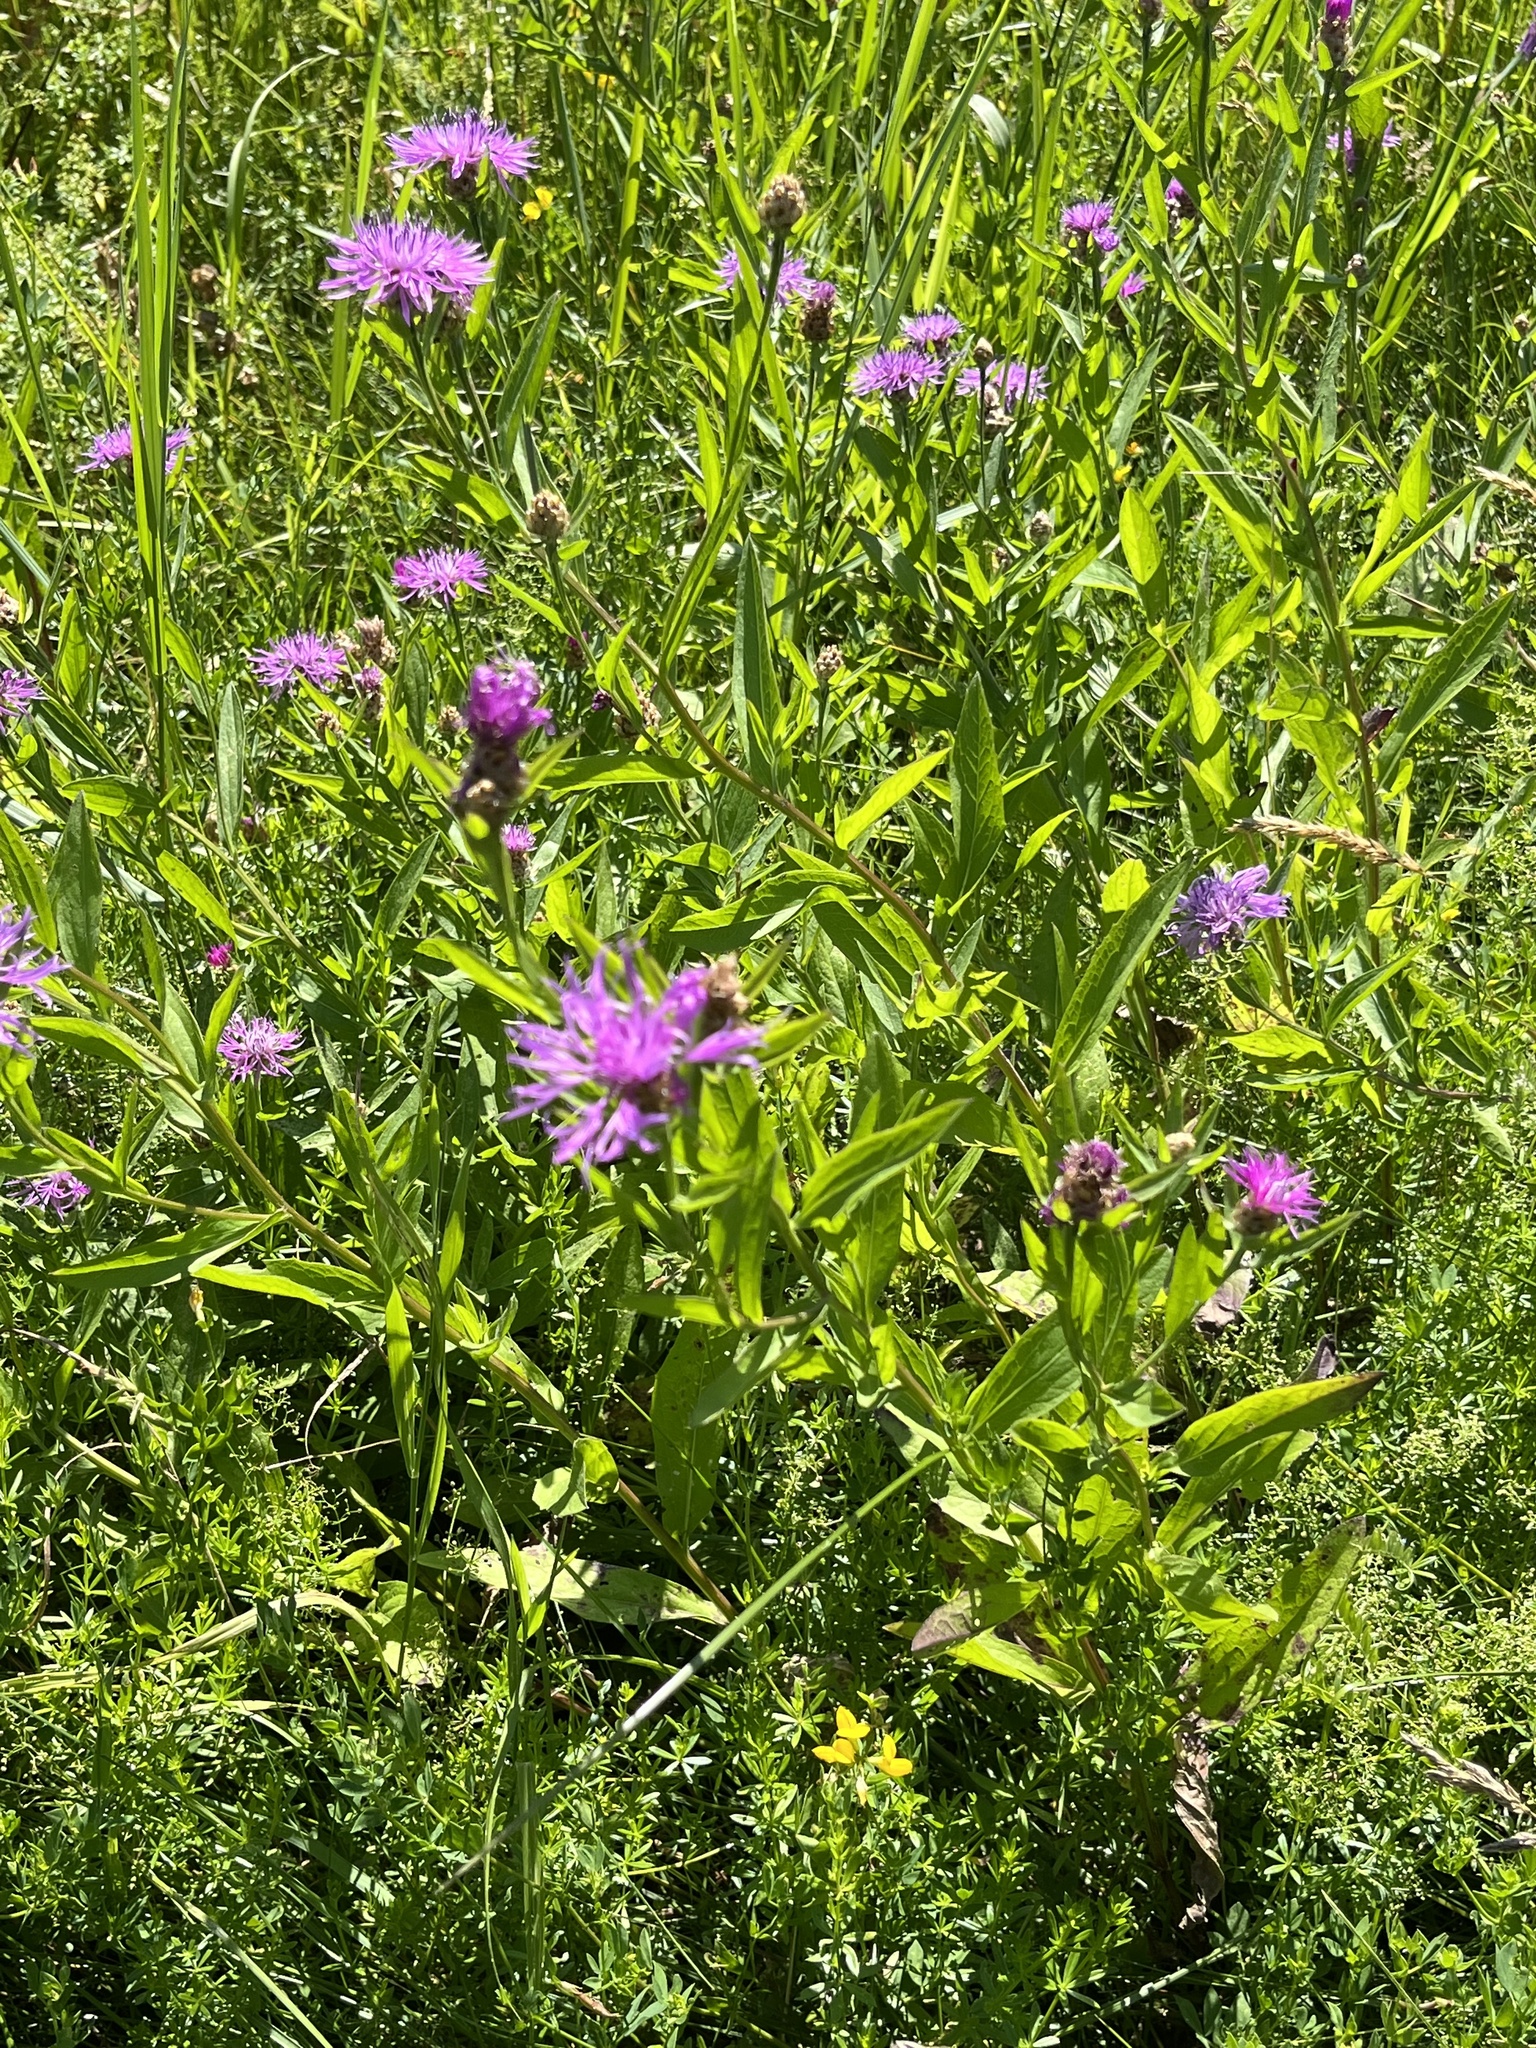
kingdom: Plantae
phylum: Tracheophyta
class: Magnoliopsida
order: Asterales
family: Asteraceae
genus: Centaurea
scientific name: Centaurea jacea
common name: Brown knapweed
